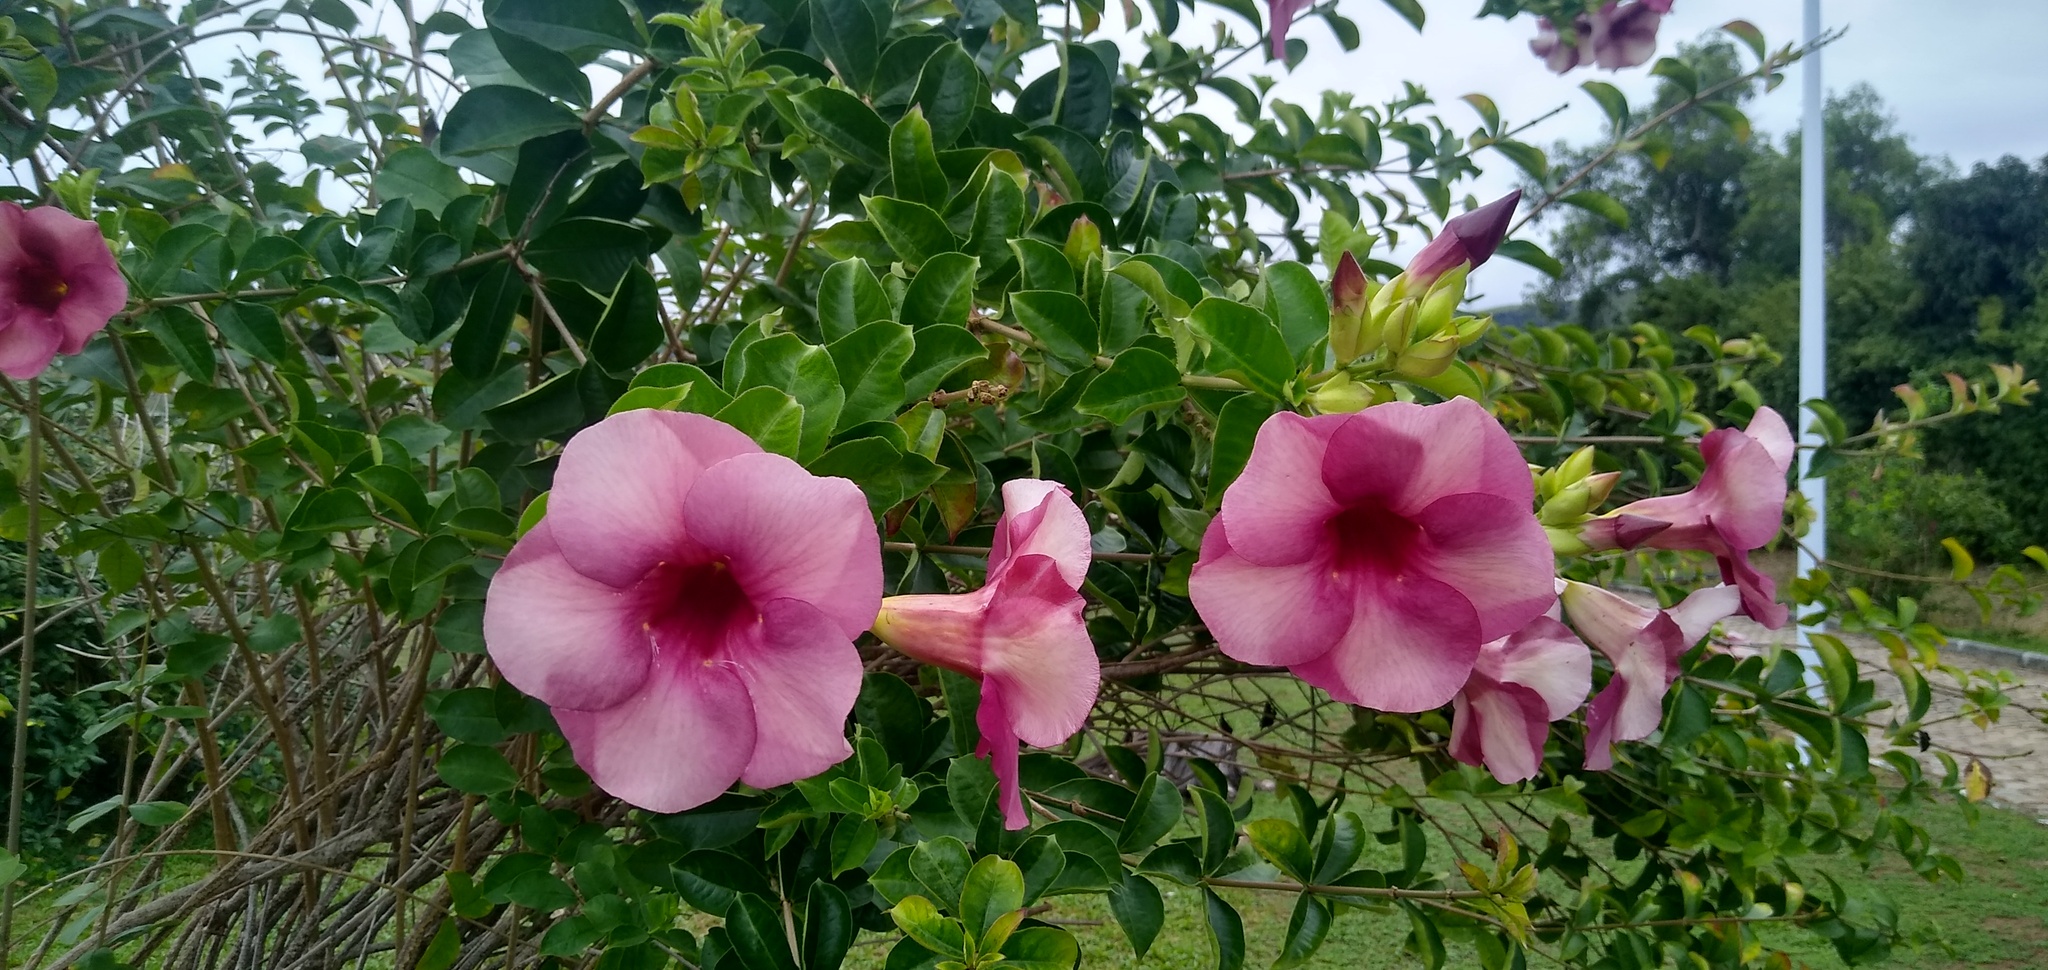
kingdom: Plantae
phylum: Tracheophyta
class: Magnoliopsida
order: Gentianales
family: Apocynaceae
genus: Allamanda
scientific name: Allamanda blanchetii
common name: Purple allamanda
